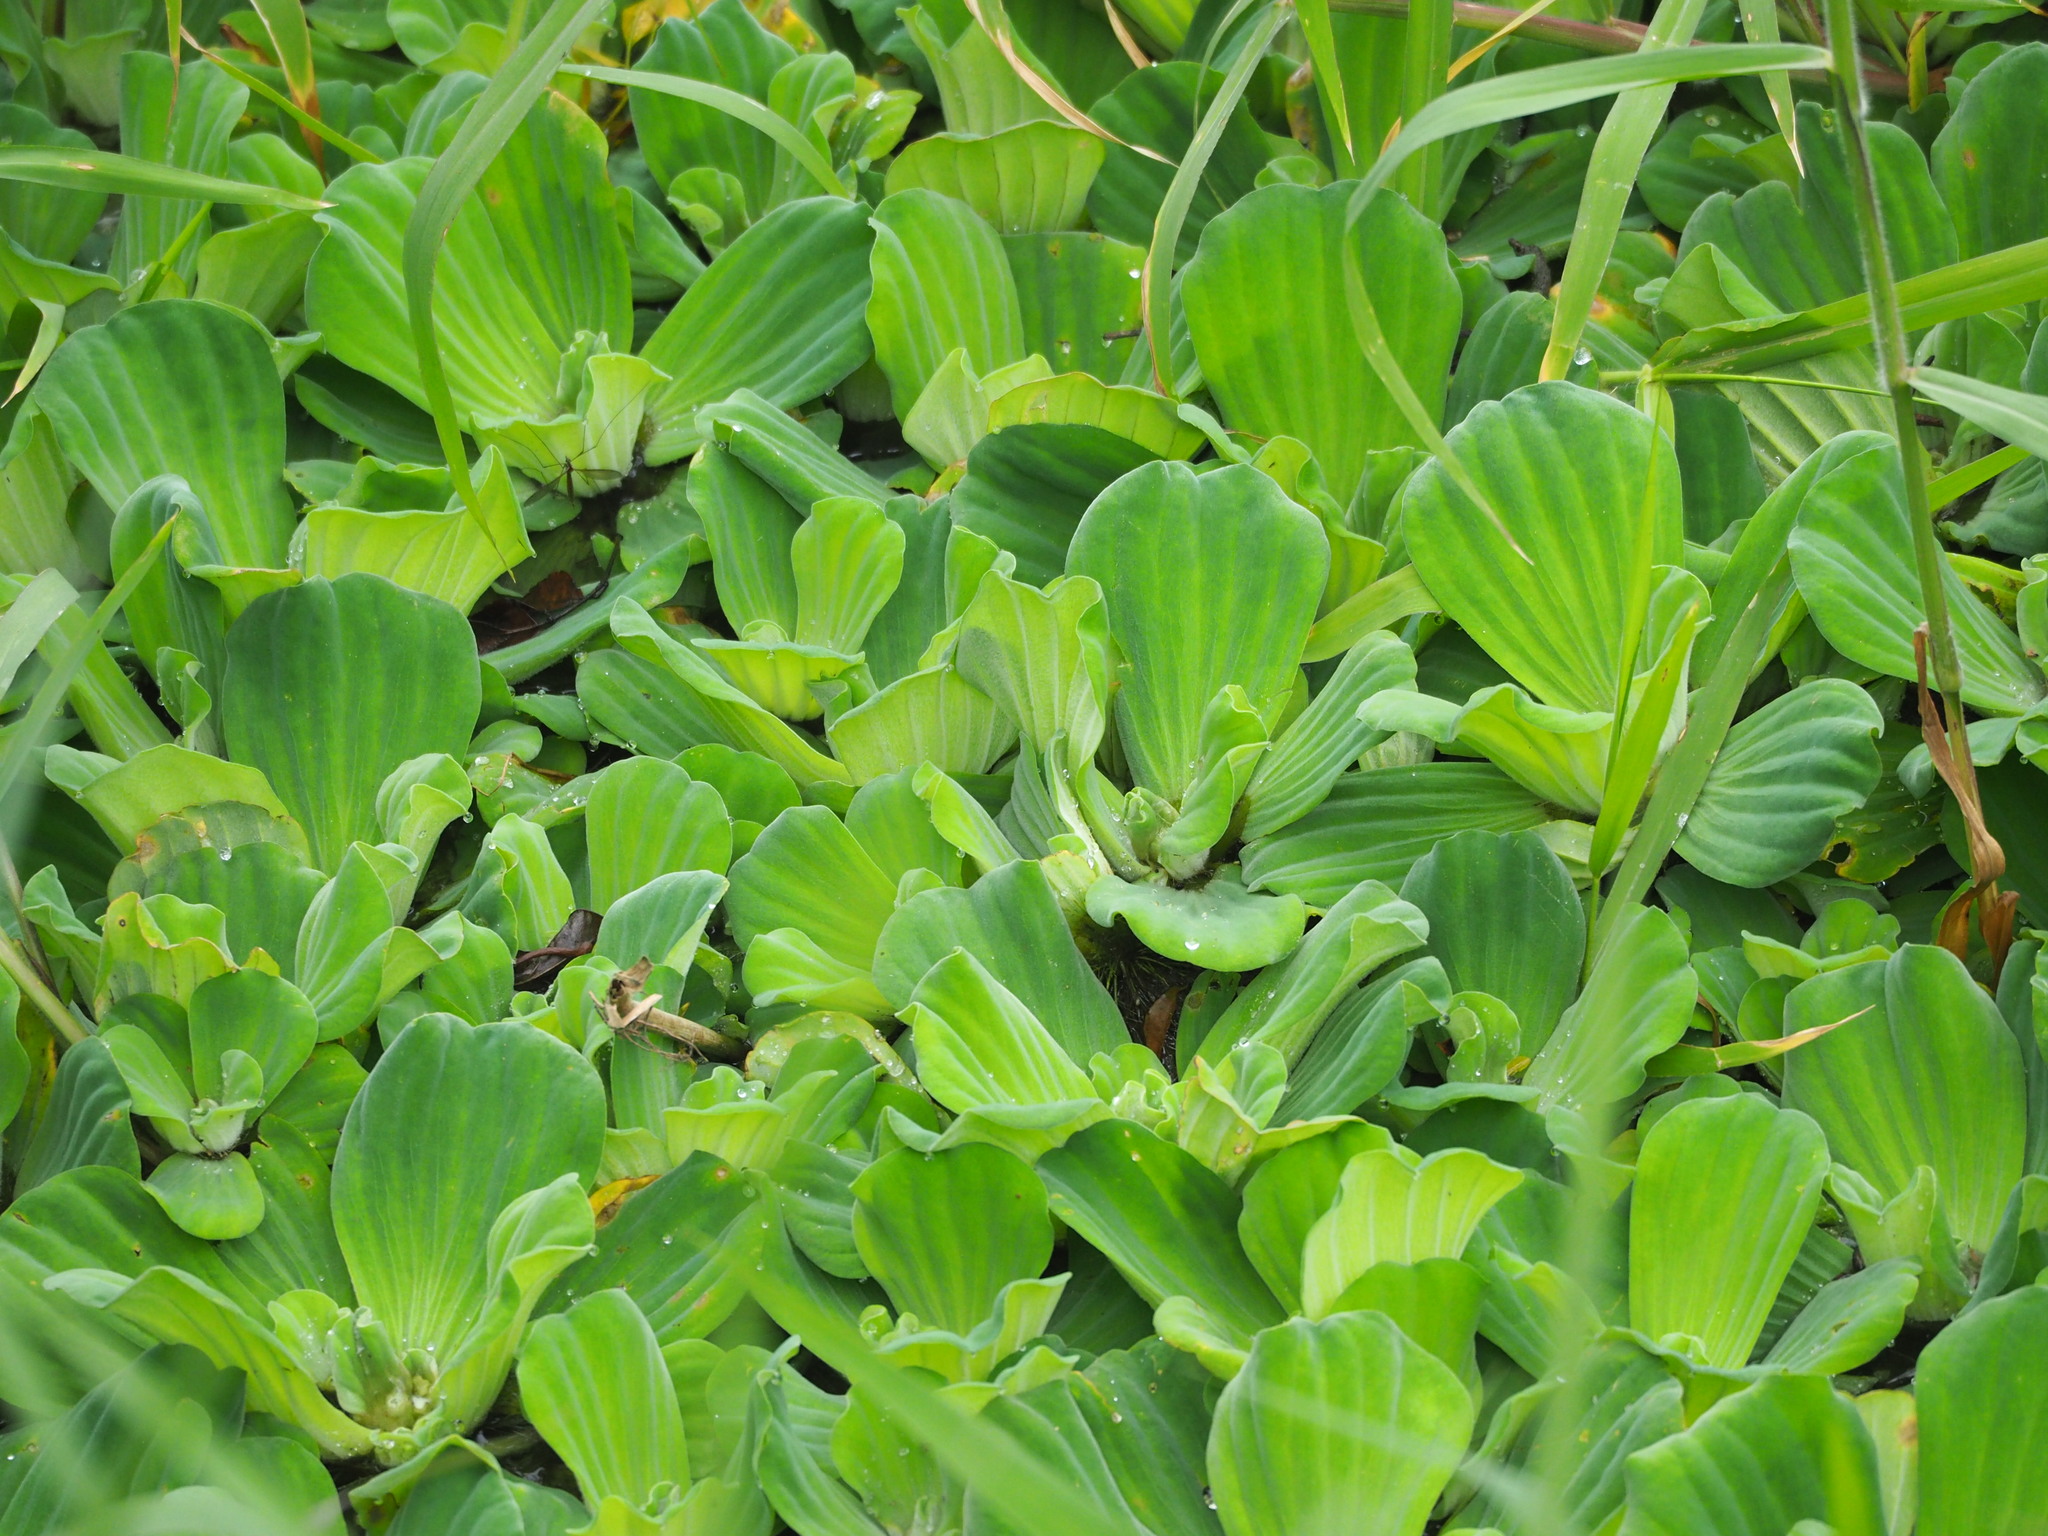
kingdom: Plantae
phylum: Tracheophyta
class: Liliopsida
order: Alismatales
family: Araceae
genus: Pistia
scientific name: Pistia stratiotes
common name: Water lettuce
